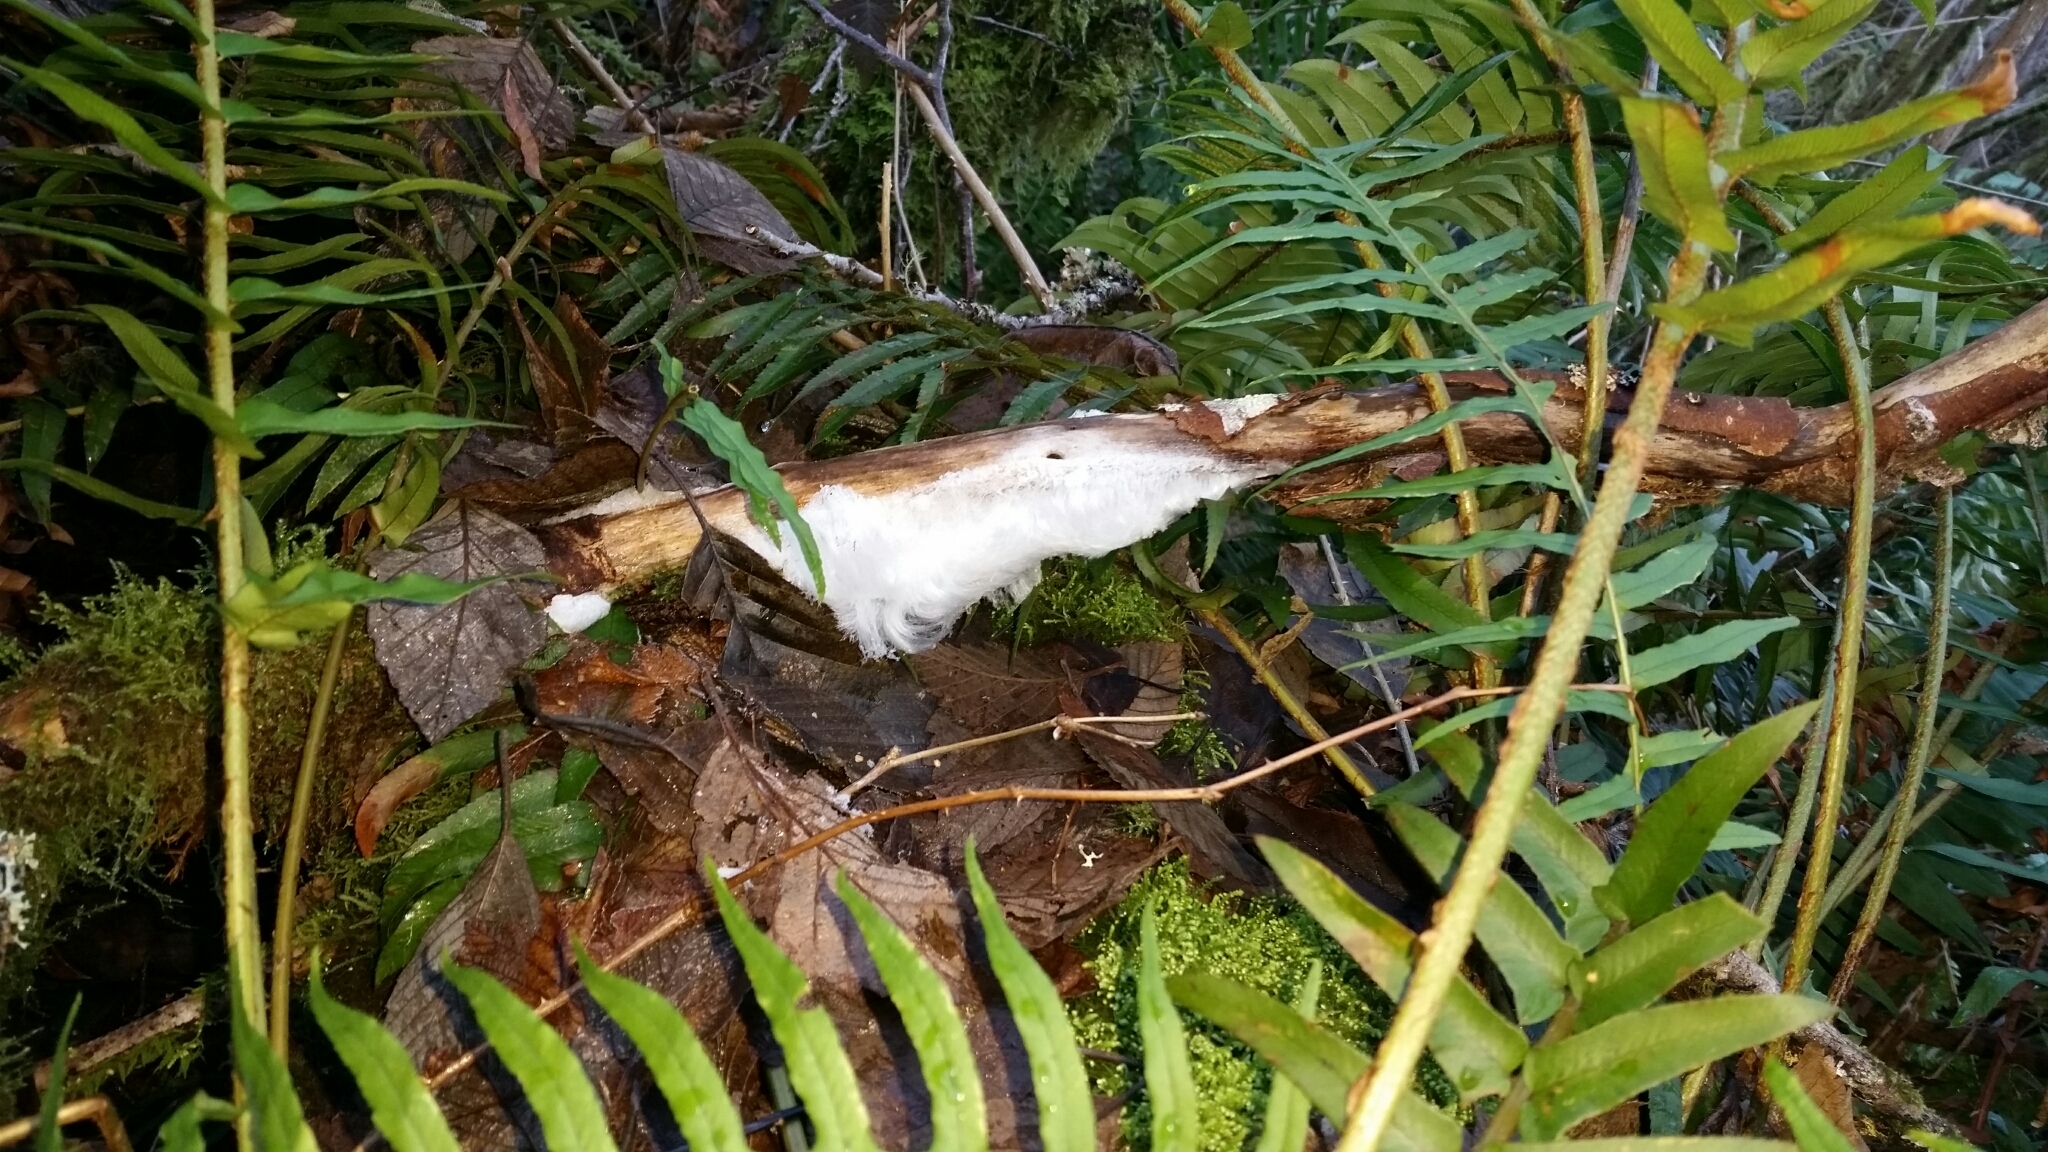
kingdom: Fungi
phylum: Basidiomycota
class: Agaricomycetes
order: Auriculariales
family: Auriculariaceae
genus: Exidiopsis
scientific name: Exidiopsis effusa
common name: Hair ice crust
